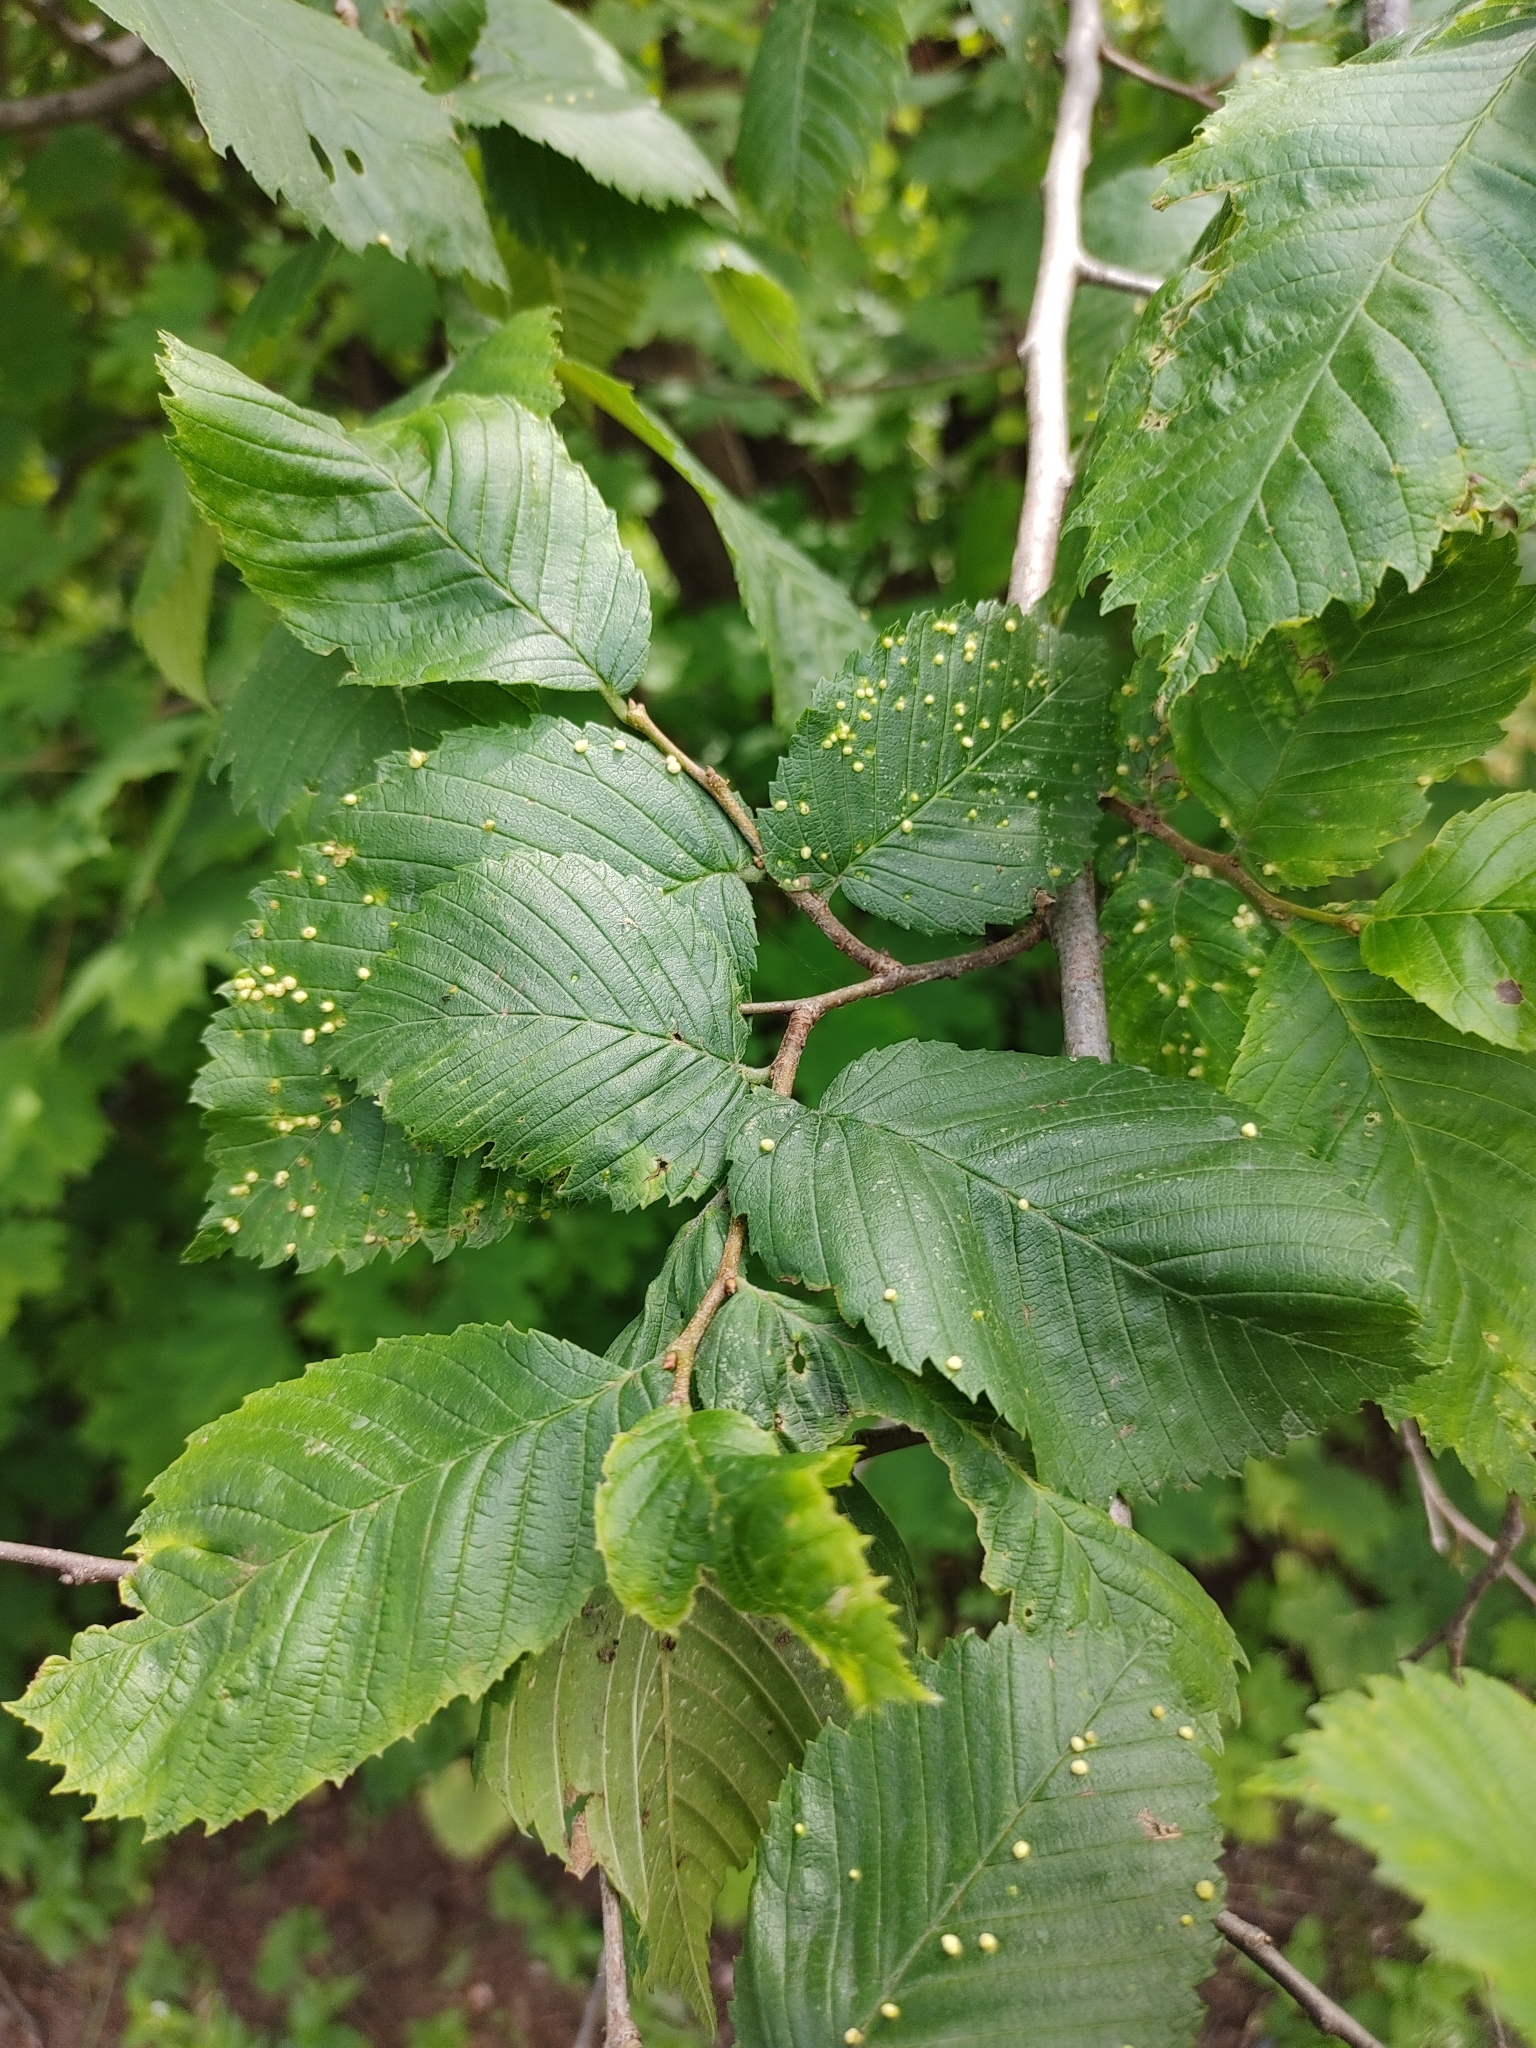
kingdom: Plantae
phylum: Tracheophyta
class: Magnoliopsida
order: Rosales
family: Ulmaceae
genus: Ulmus
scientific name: Ulmus minor
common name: Small-leaved elm
